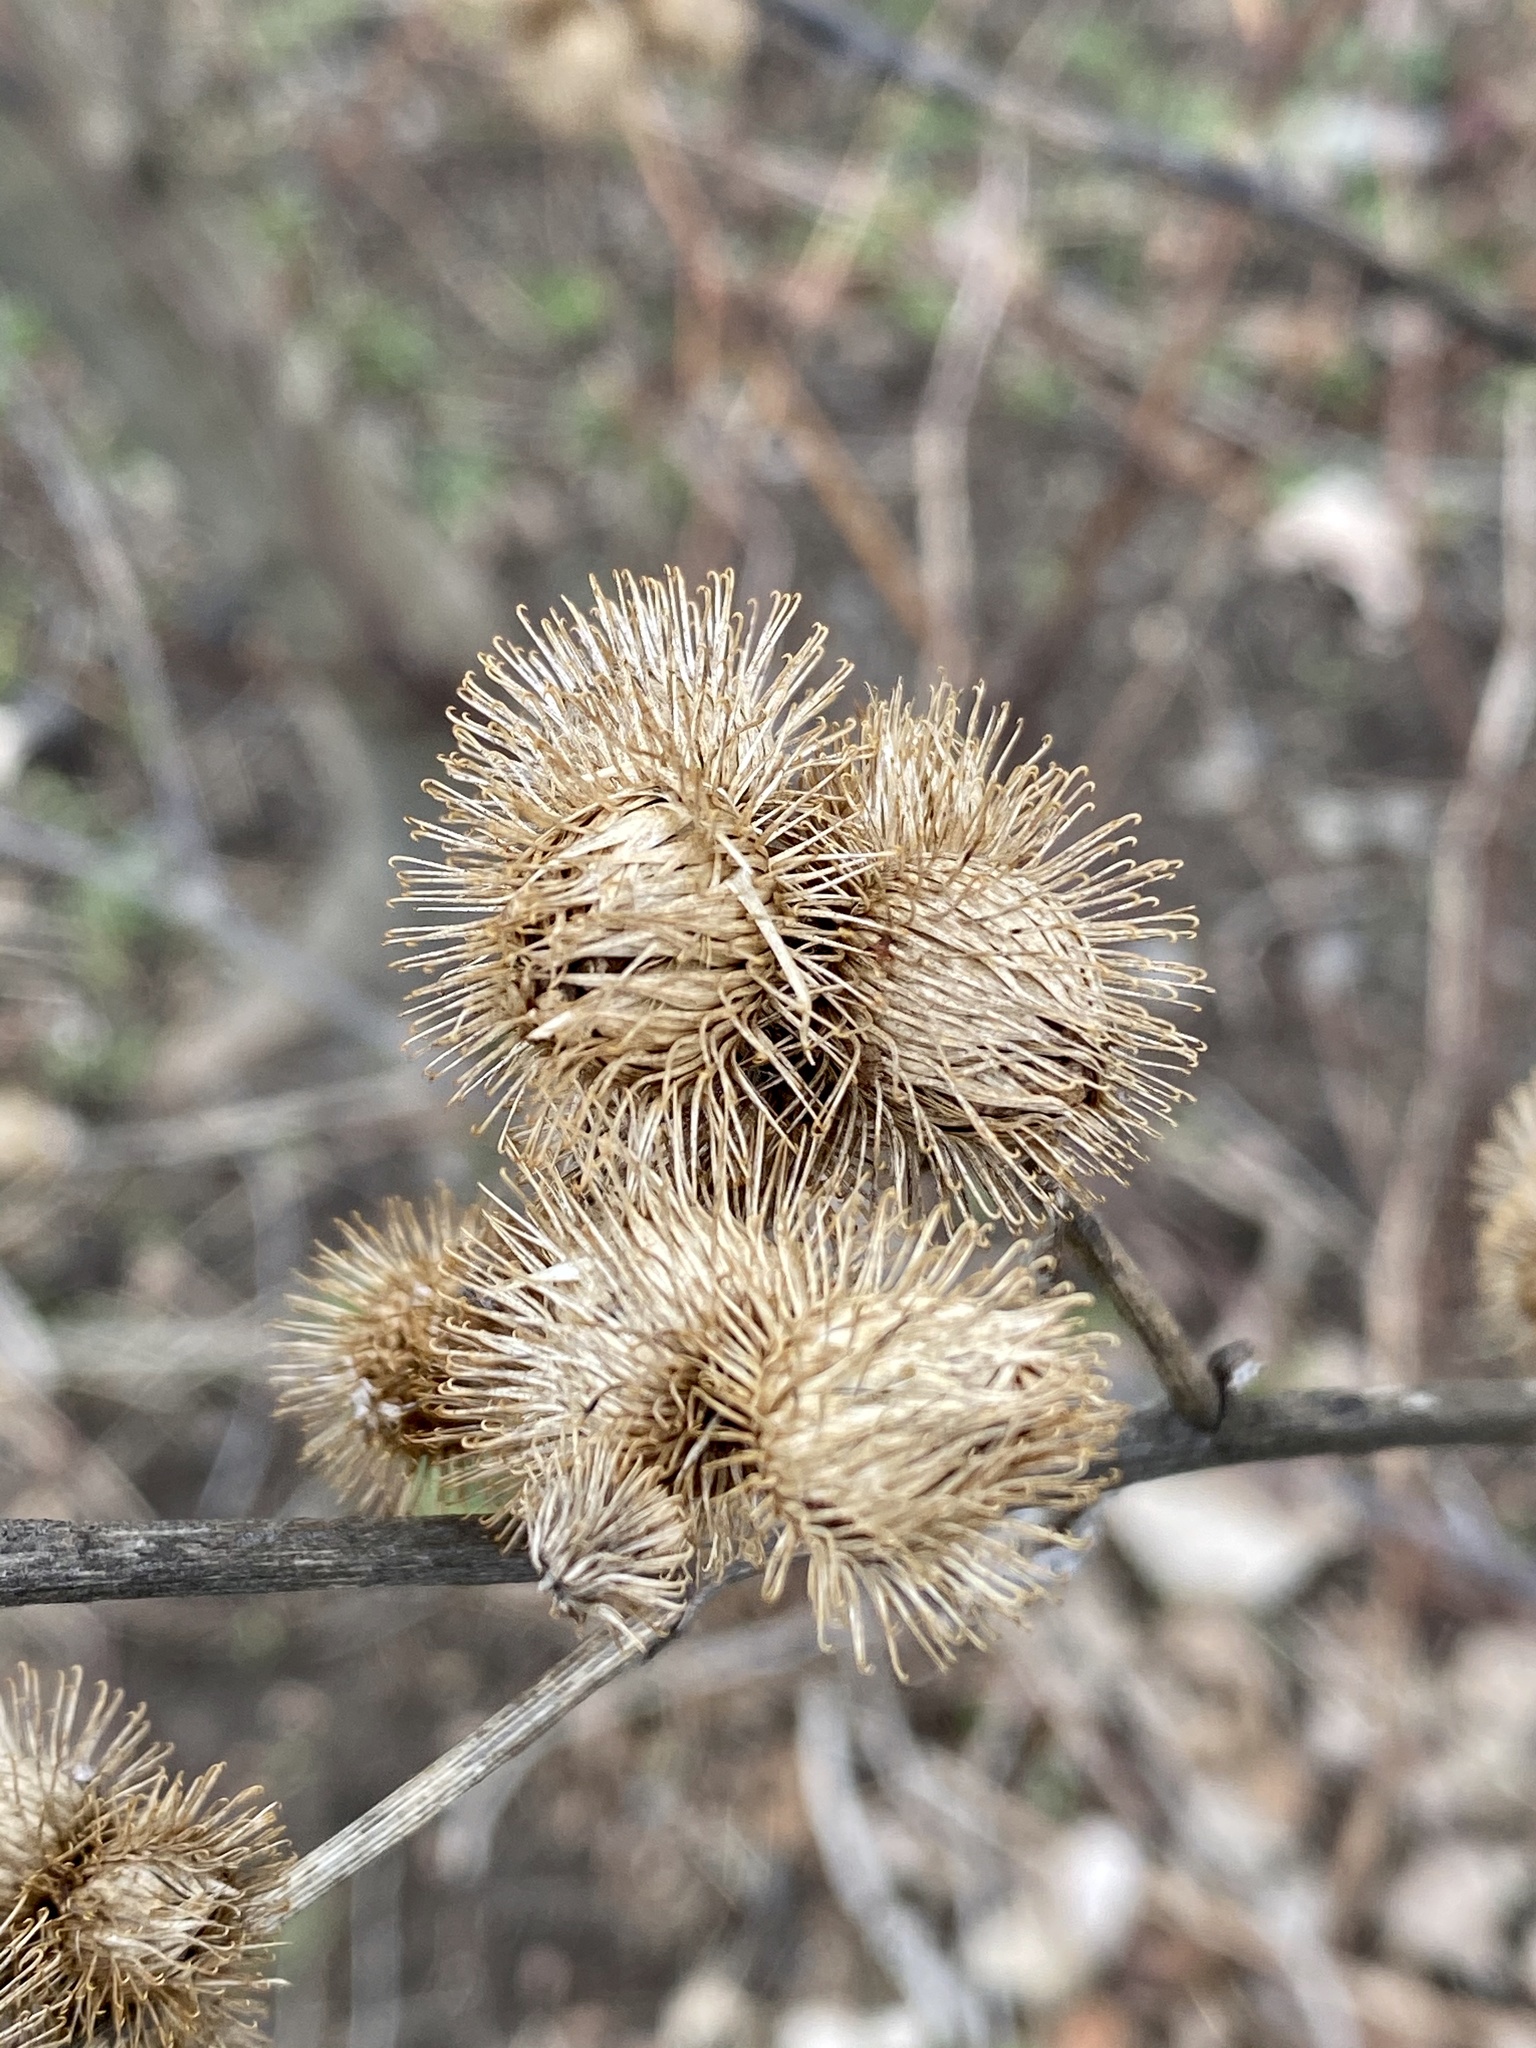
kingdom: Plantae
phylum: Tracheophyta
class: Magnoliopsida
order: Asterales
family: Asteraceae
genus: Arctium
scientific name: Arctium minus
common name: Lesser burdock
